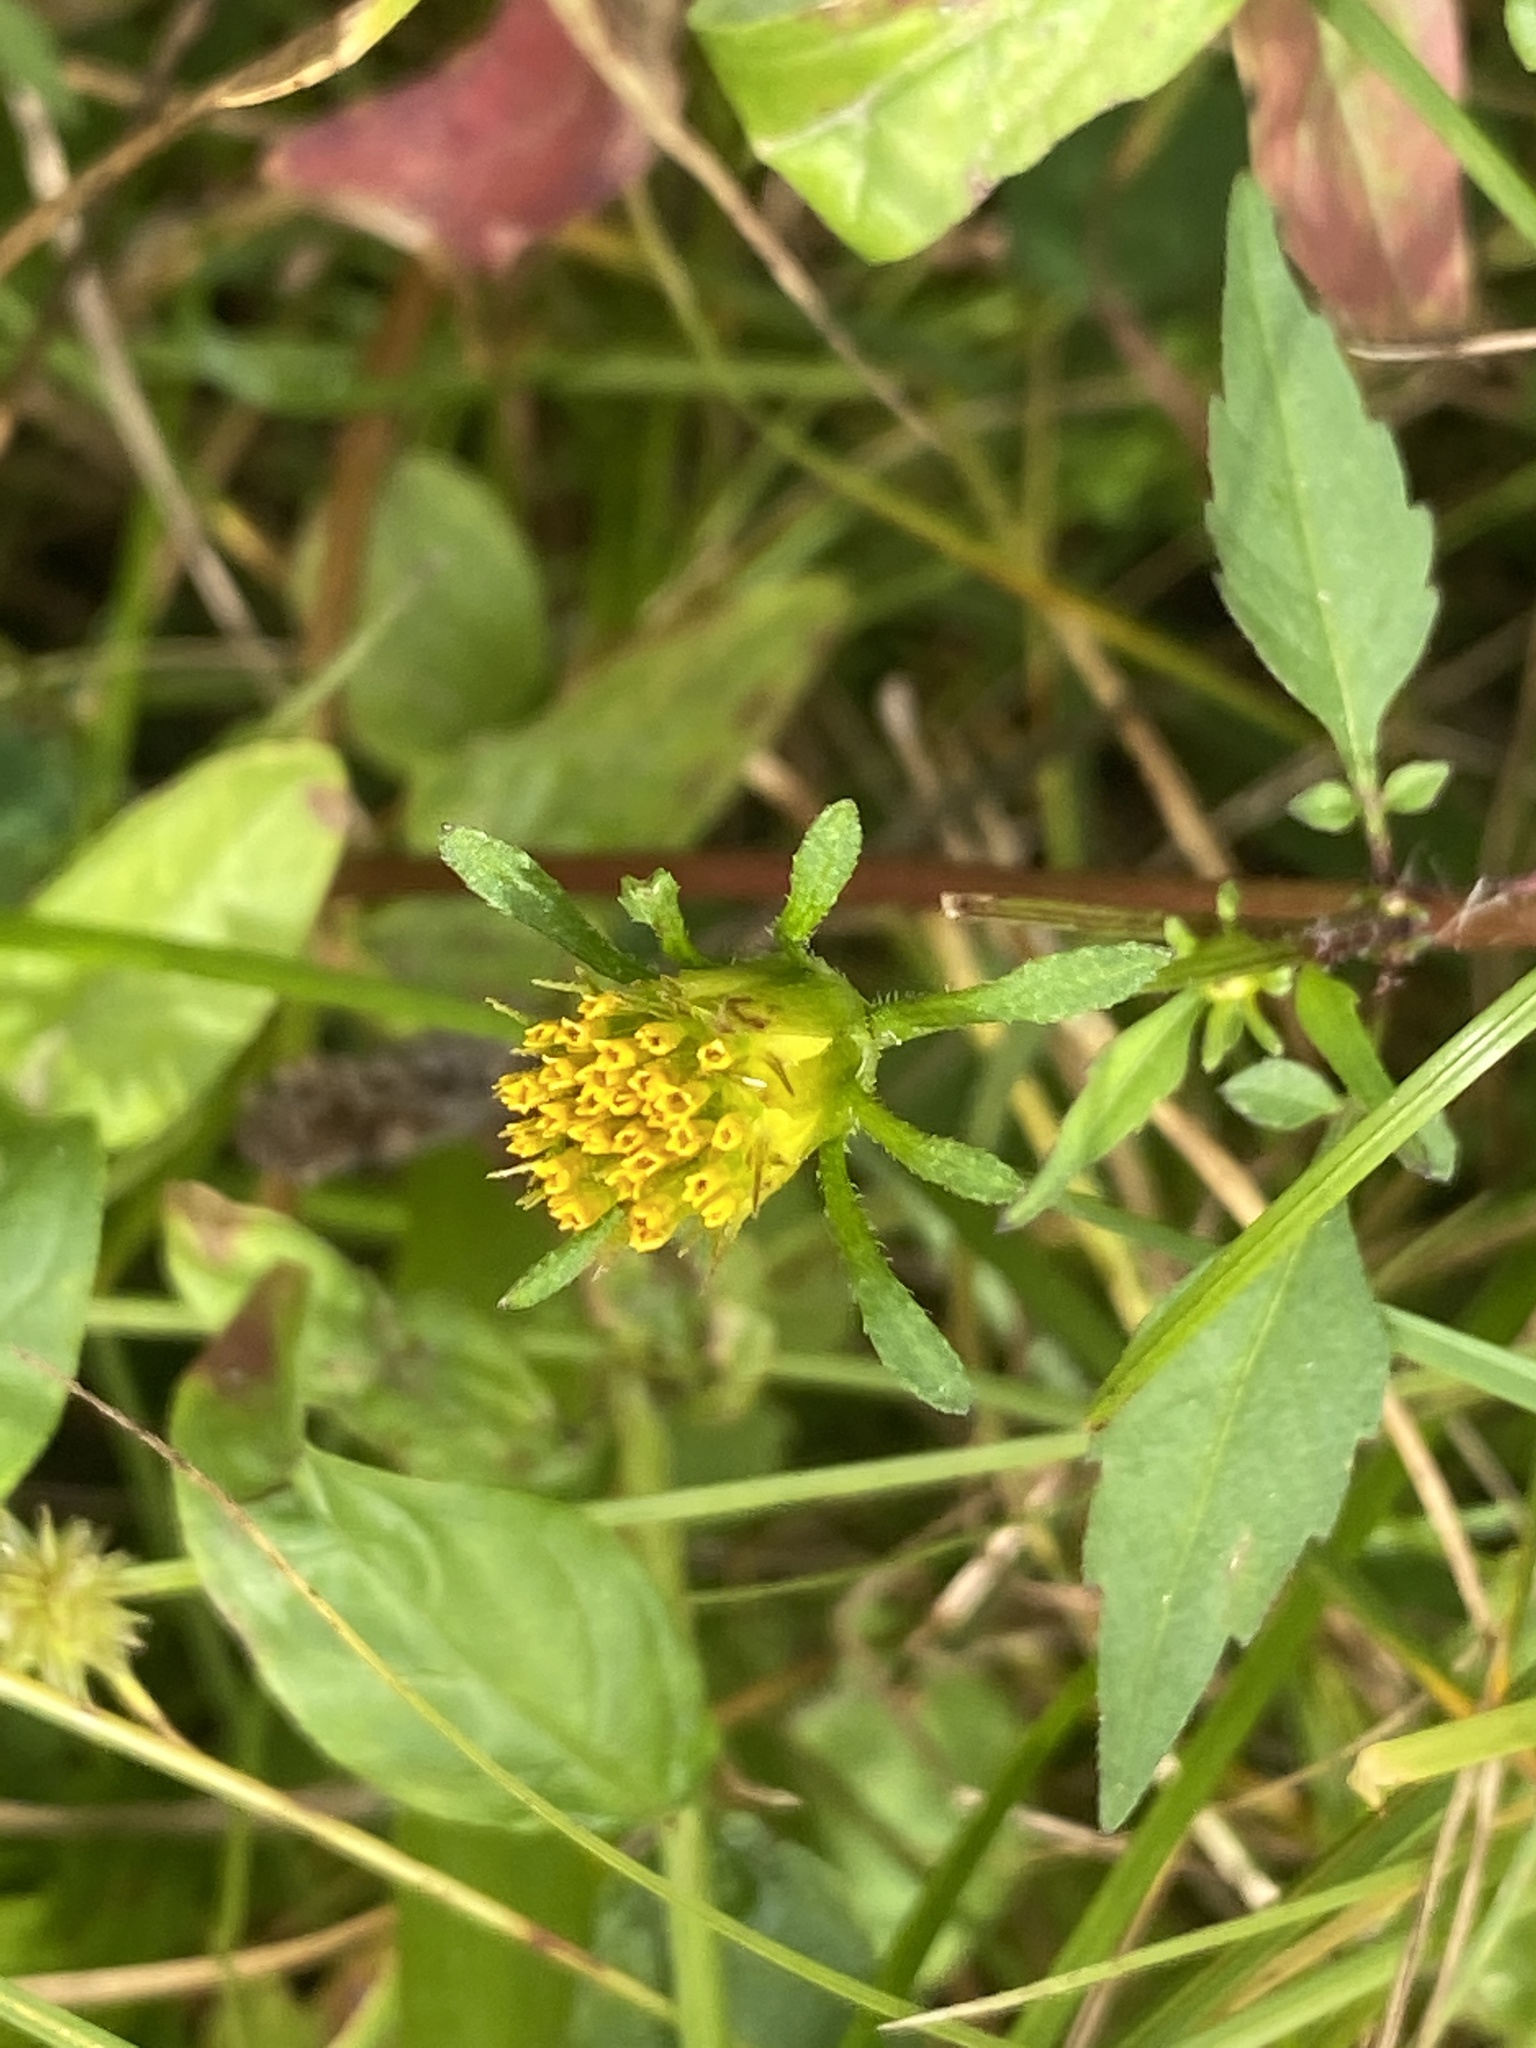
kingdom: Plantae
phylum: Tracheophyta
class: Magnoliopsida
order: Asterales
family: Asteraceae
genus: Bidens
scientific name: Bidens frondosa
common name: Beggarticks
